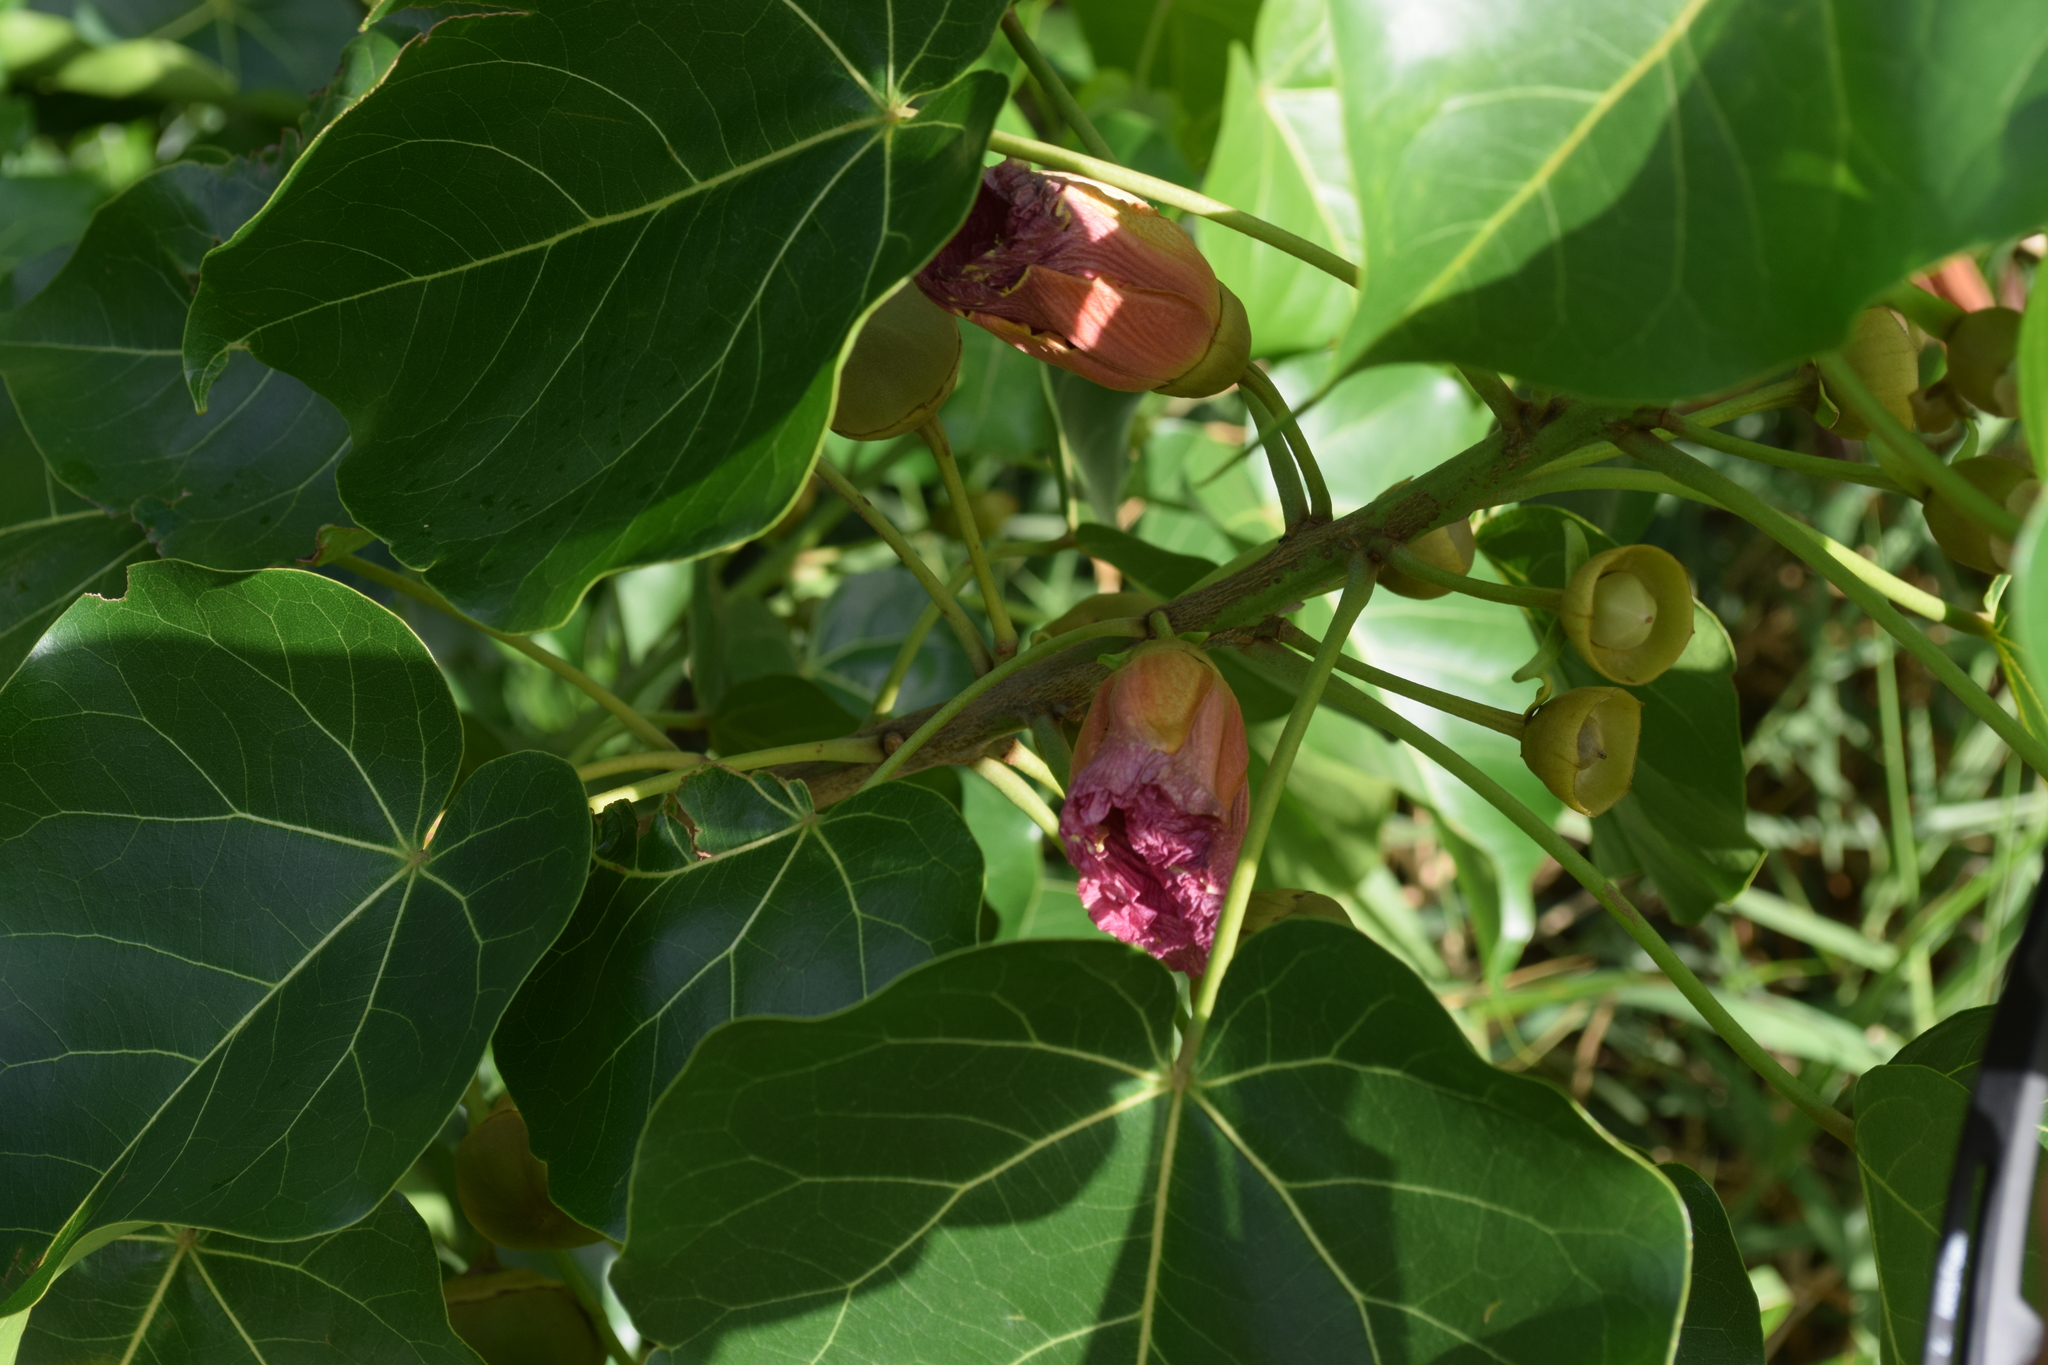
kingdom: Plantae
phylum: Tracheophyta
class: Magnoliopsida
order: Malvales
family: Malvaceae
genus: Thespesia
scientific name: Thespesia populnea
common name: Seaside mahoe
